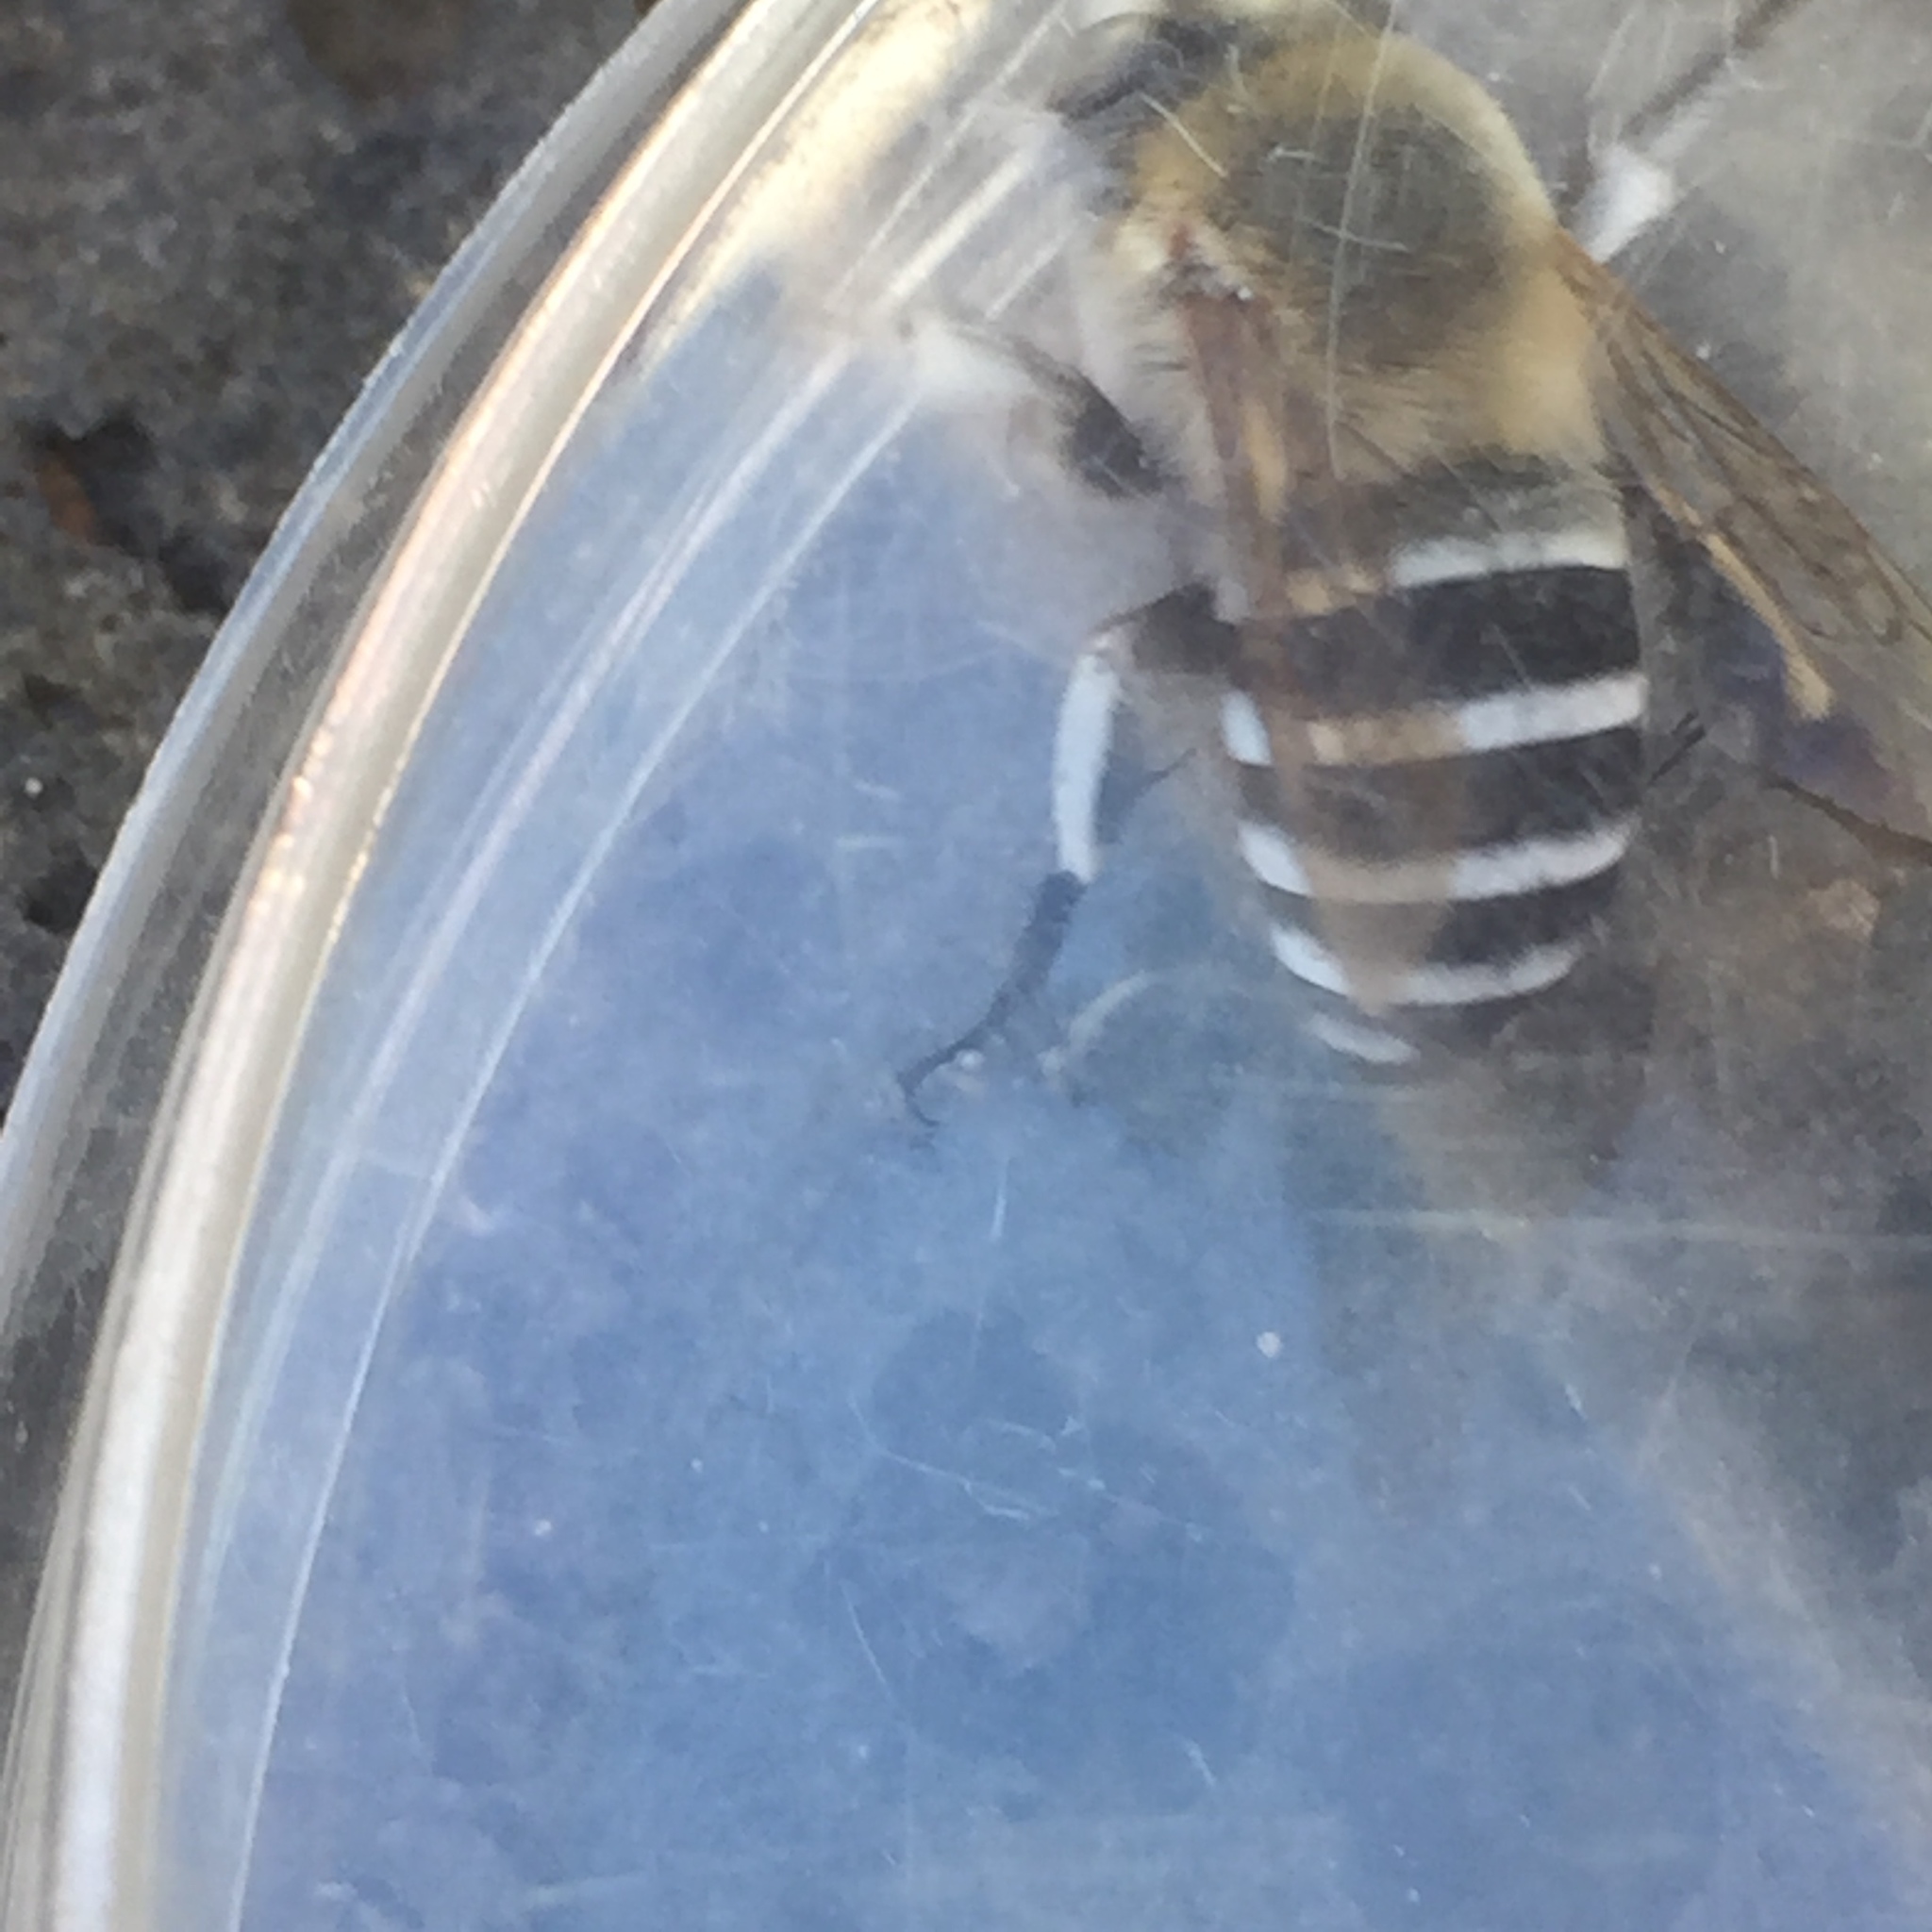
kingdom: Animalia
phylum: Arthropoda
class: Insecta
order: Hymenoptera
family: Apidae
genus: Amegilla
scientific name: Amegilla quadrifasciata
